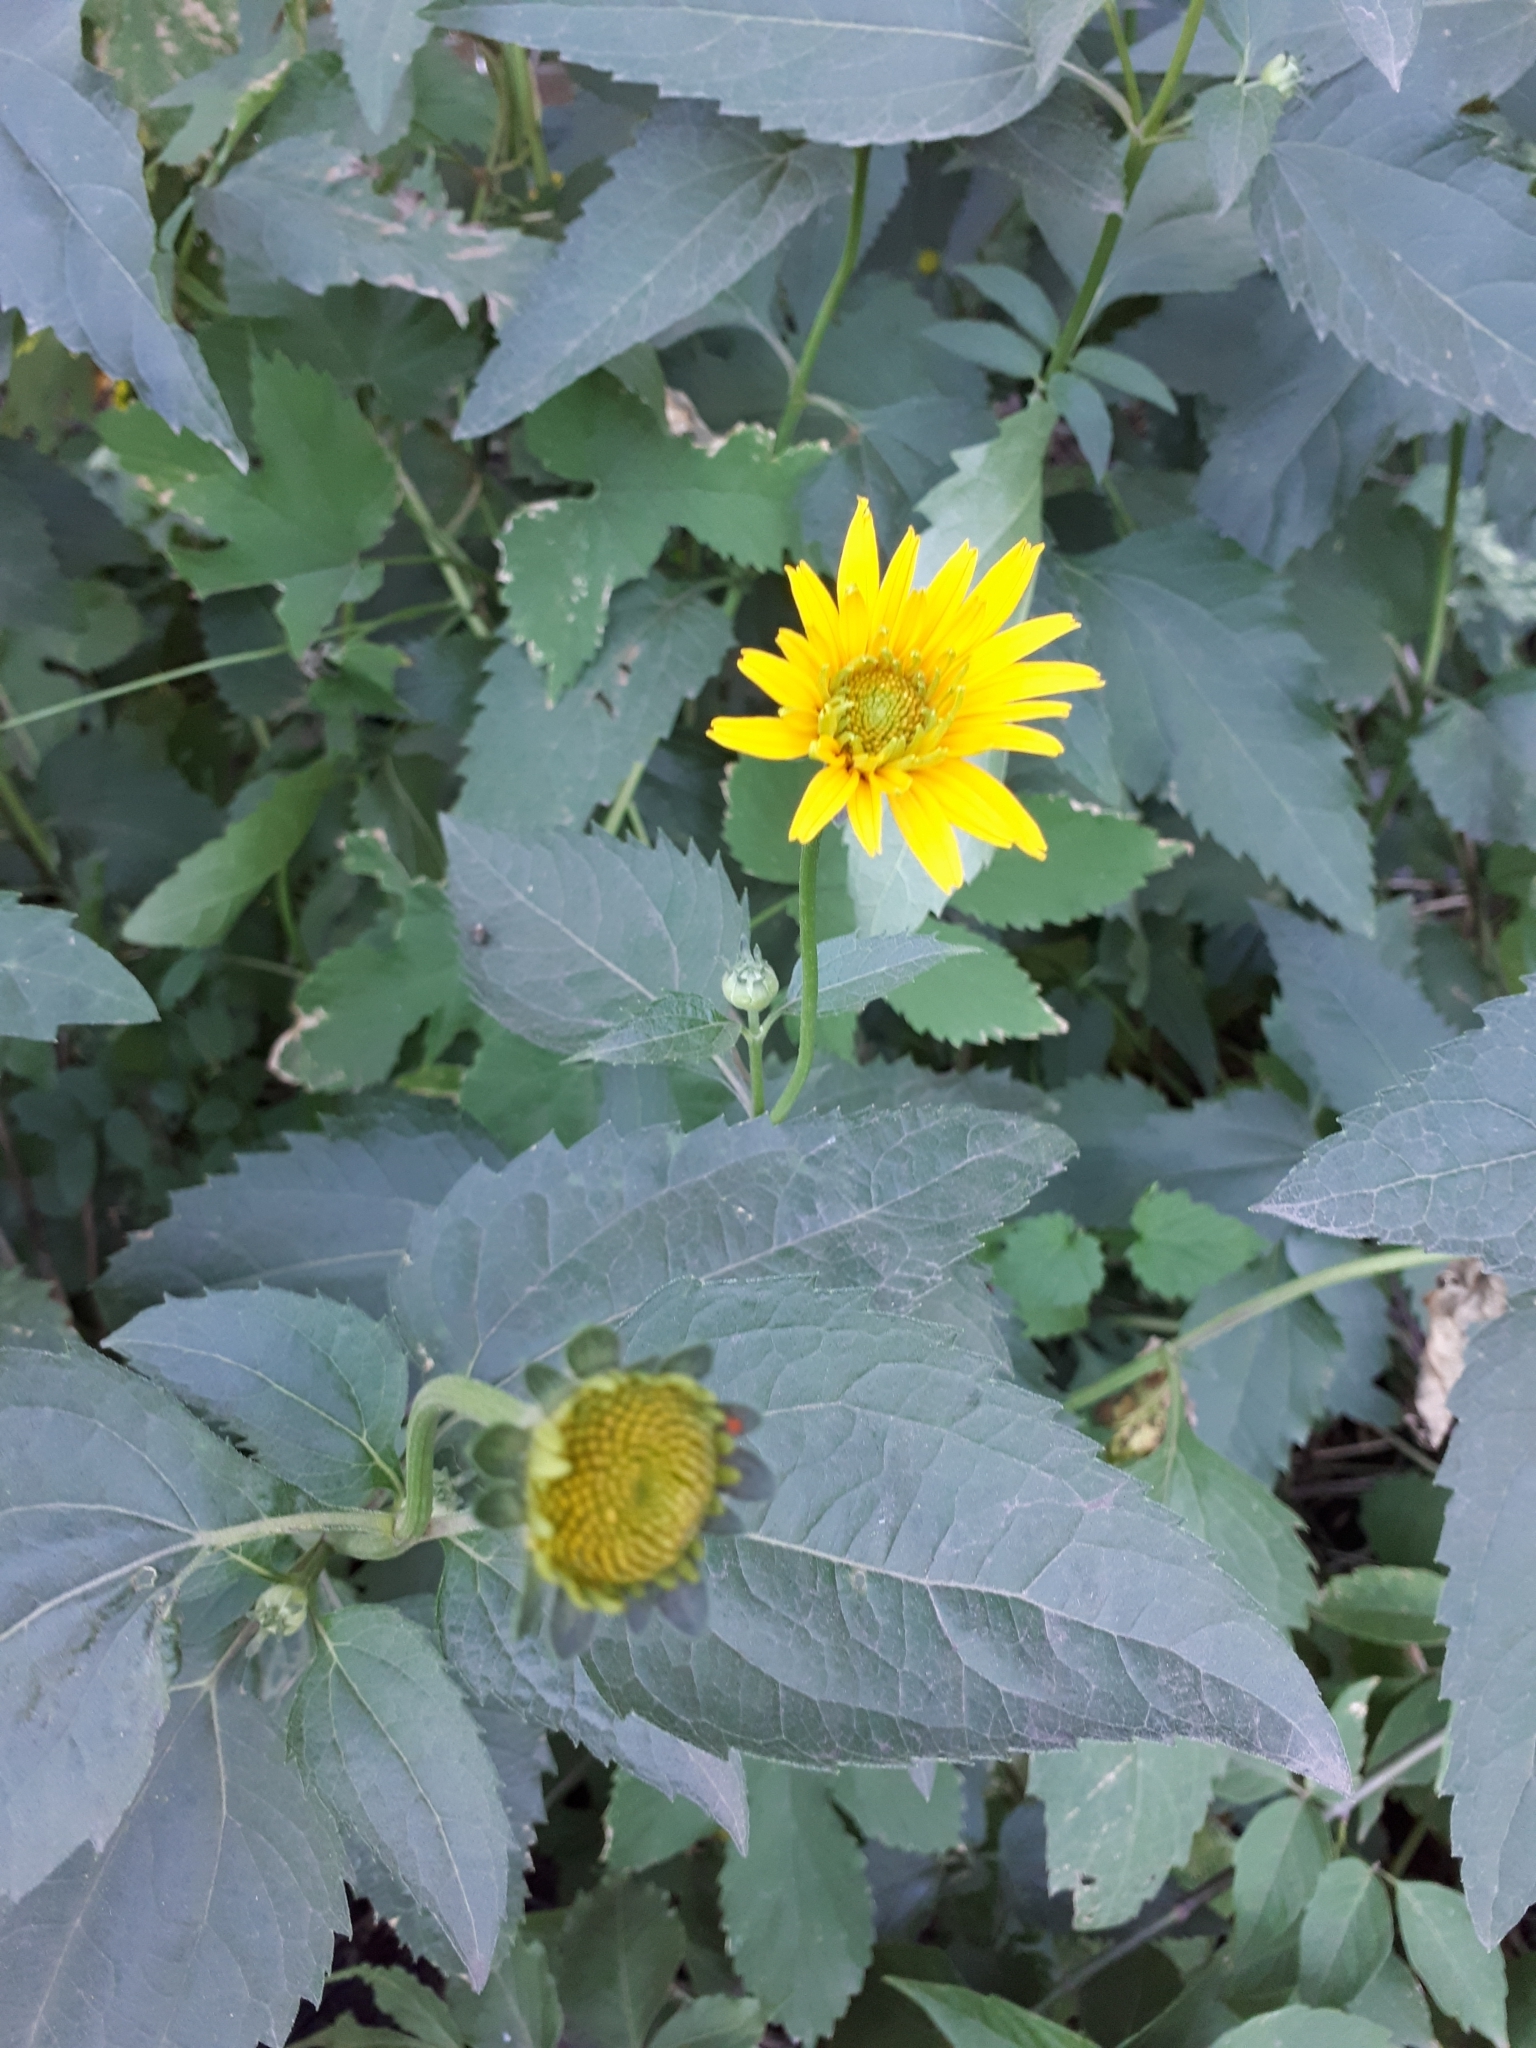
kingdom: Plantae
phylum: Tracheophyta
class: Magnoliopsida
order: Asterales
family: Asteraceae
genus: Heliopsis
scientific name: Heliopsis helianthoides
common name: False sunflower
